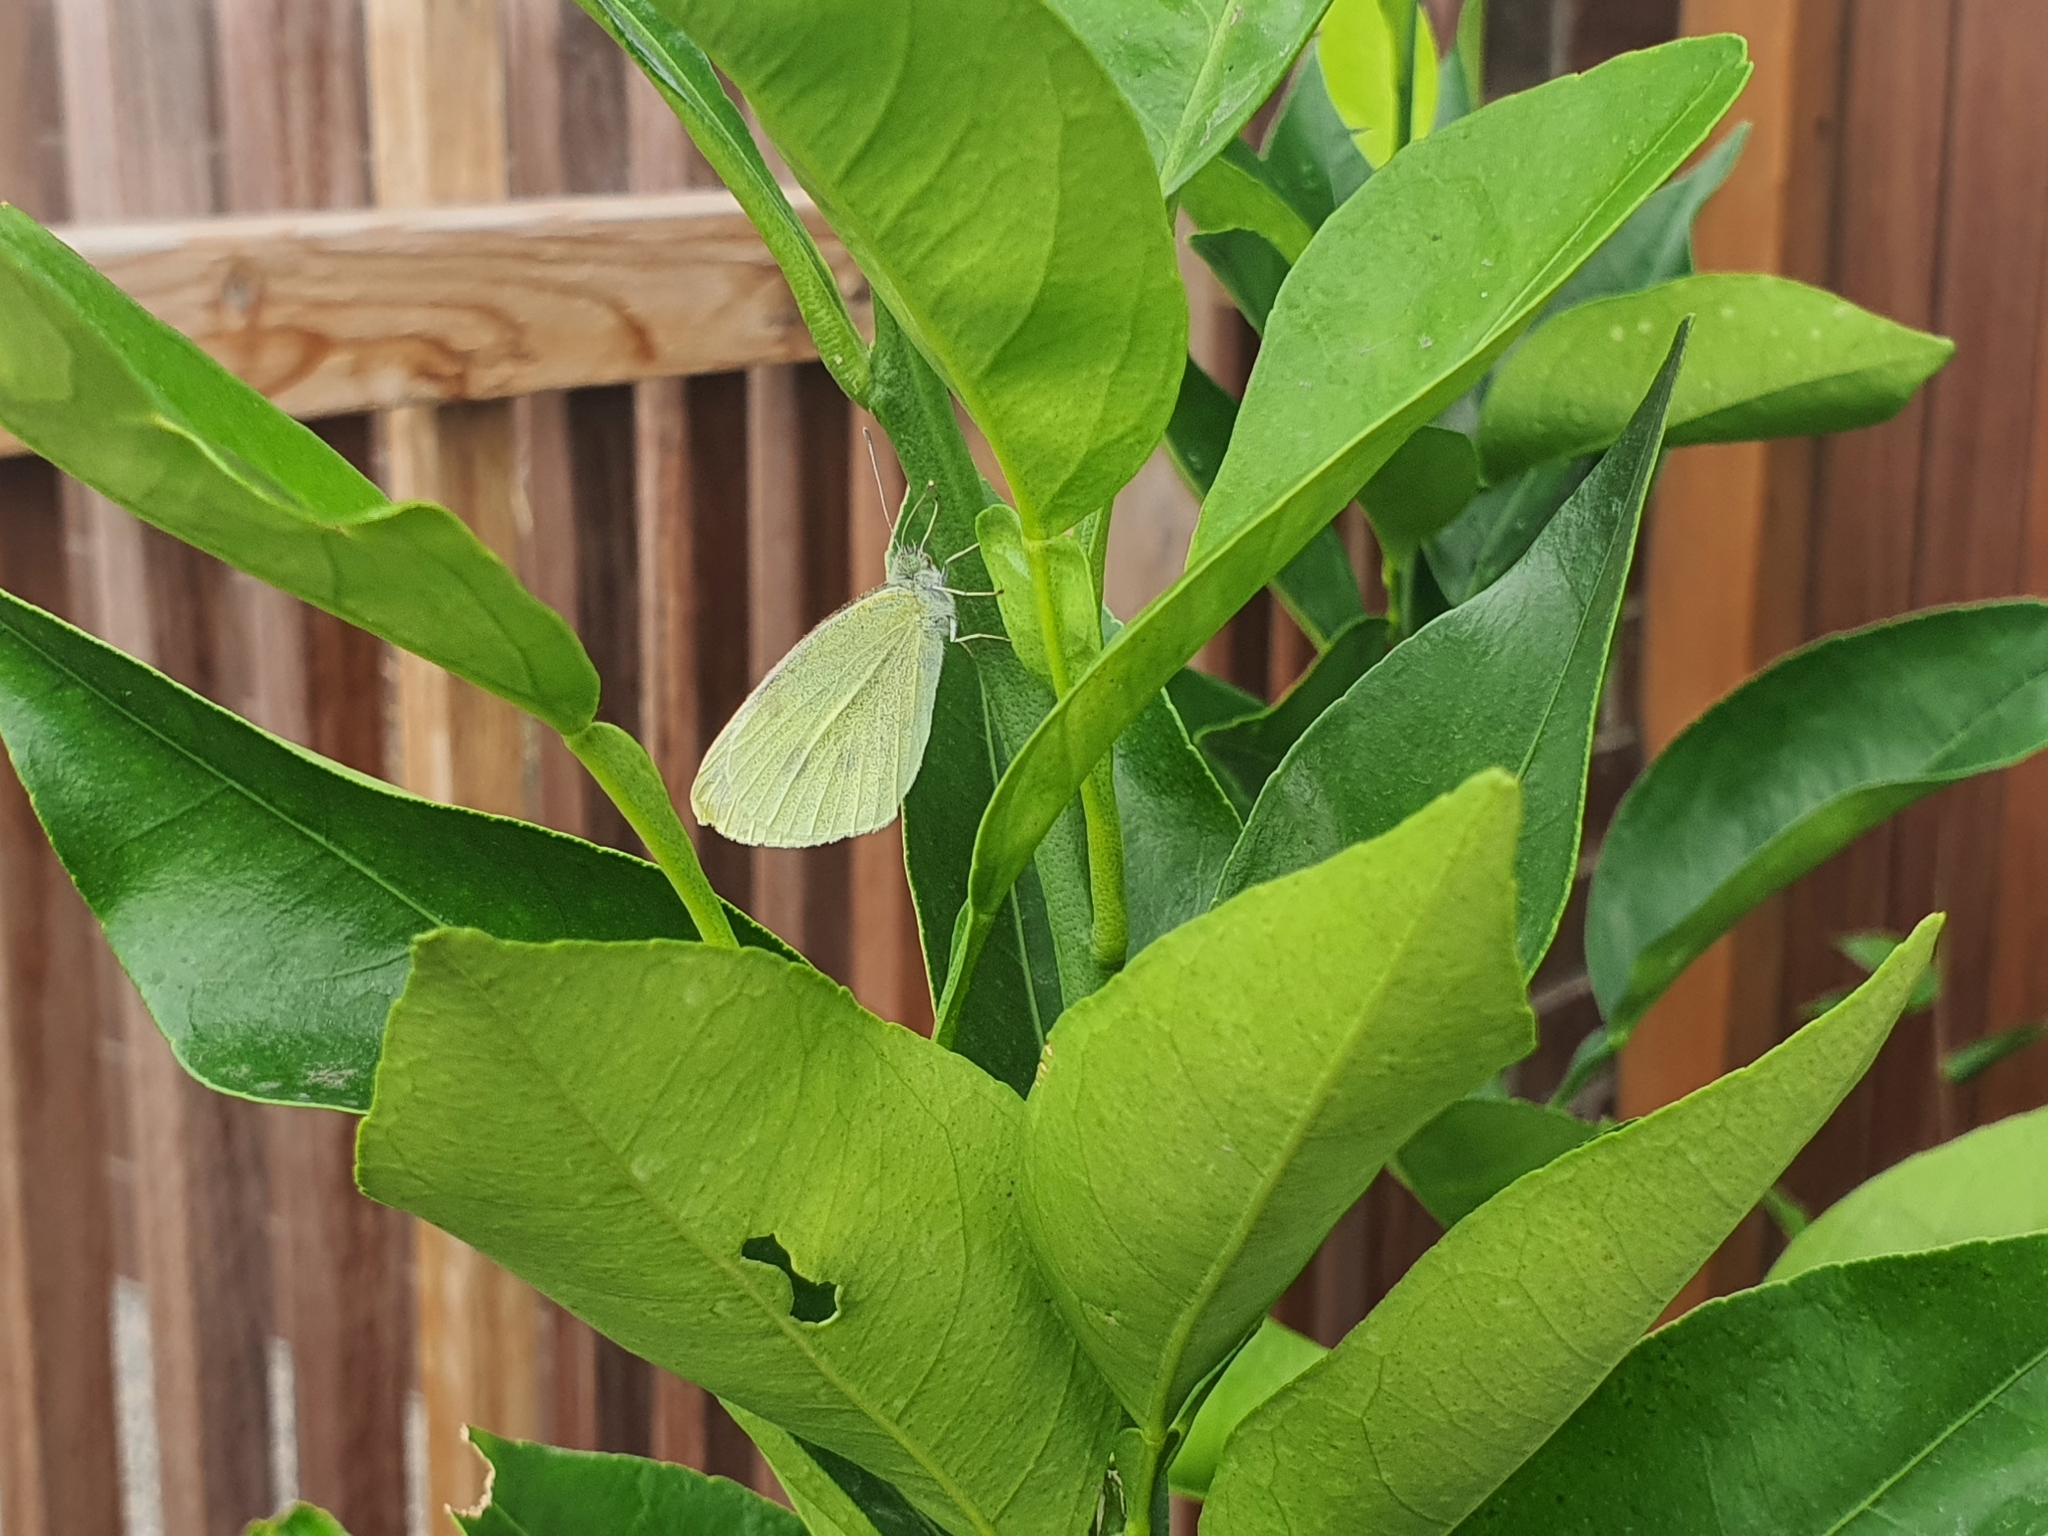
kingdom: Animalia
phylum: Arthropoda
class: Insecta
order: Lepidoptera
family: Pieridae
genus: Pieris
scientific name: Pieris rapae
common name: Small white
